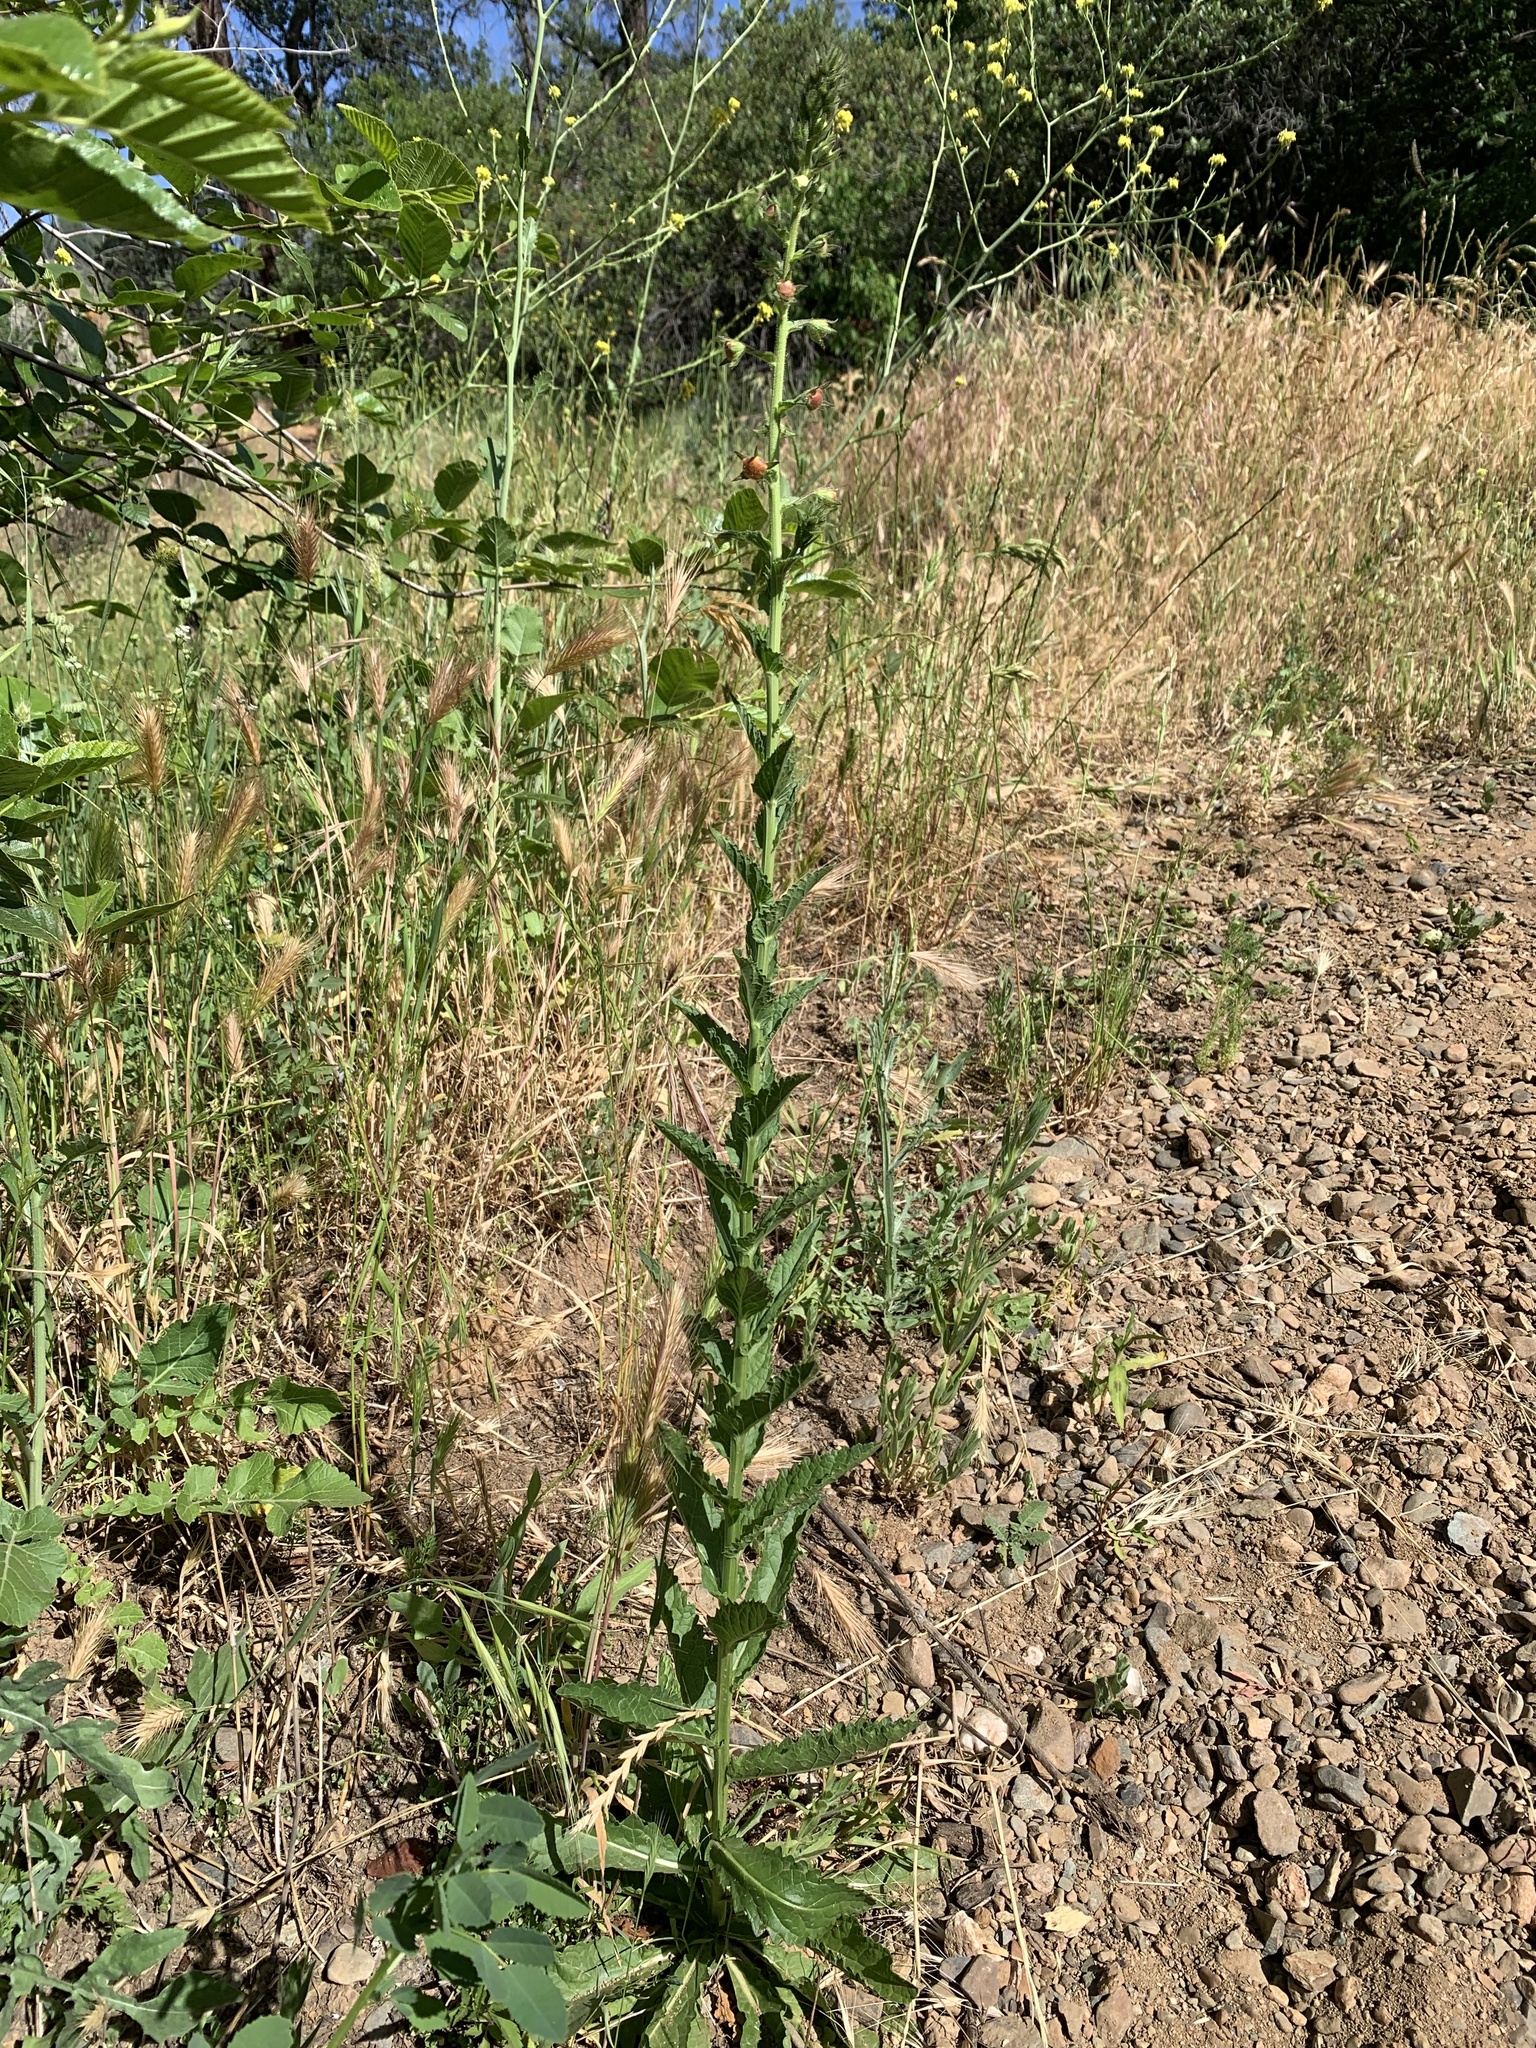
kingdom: Plantae
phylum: Tracheophyta
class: Magnoliopsida
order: Lamiales
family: Scrophulariaceae
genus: Verbascum
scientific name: Verbascum blattaria
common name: Moth mullein
